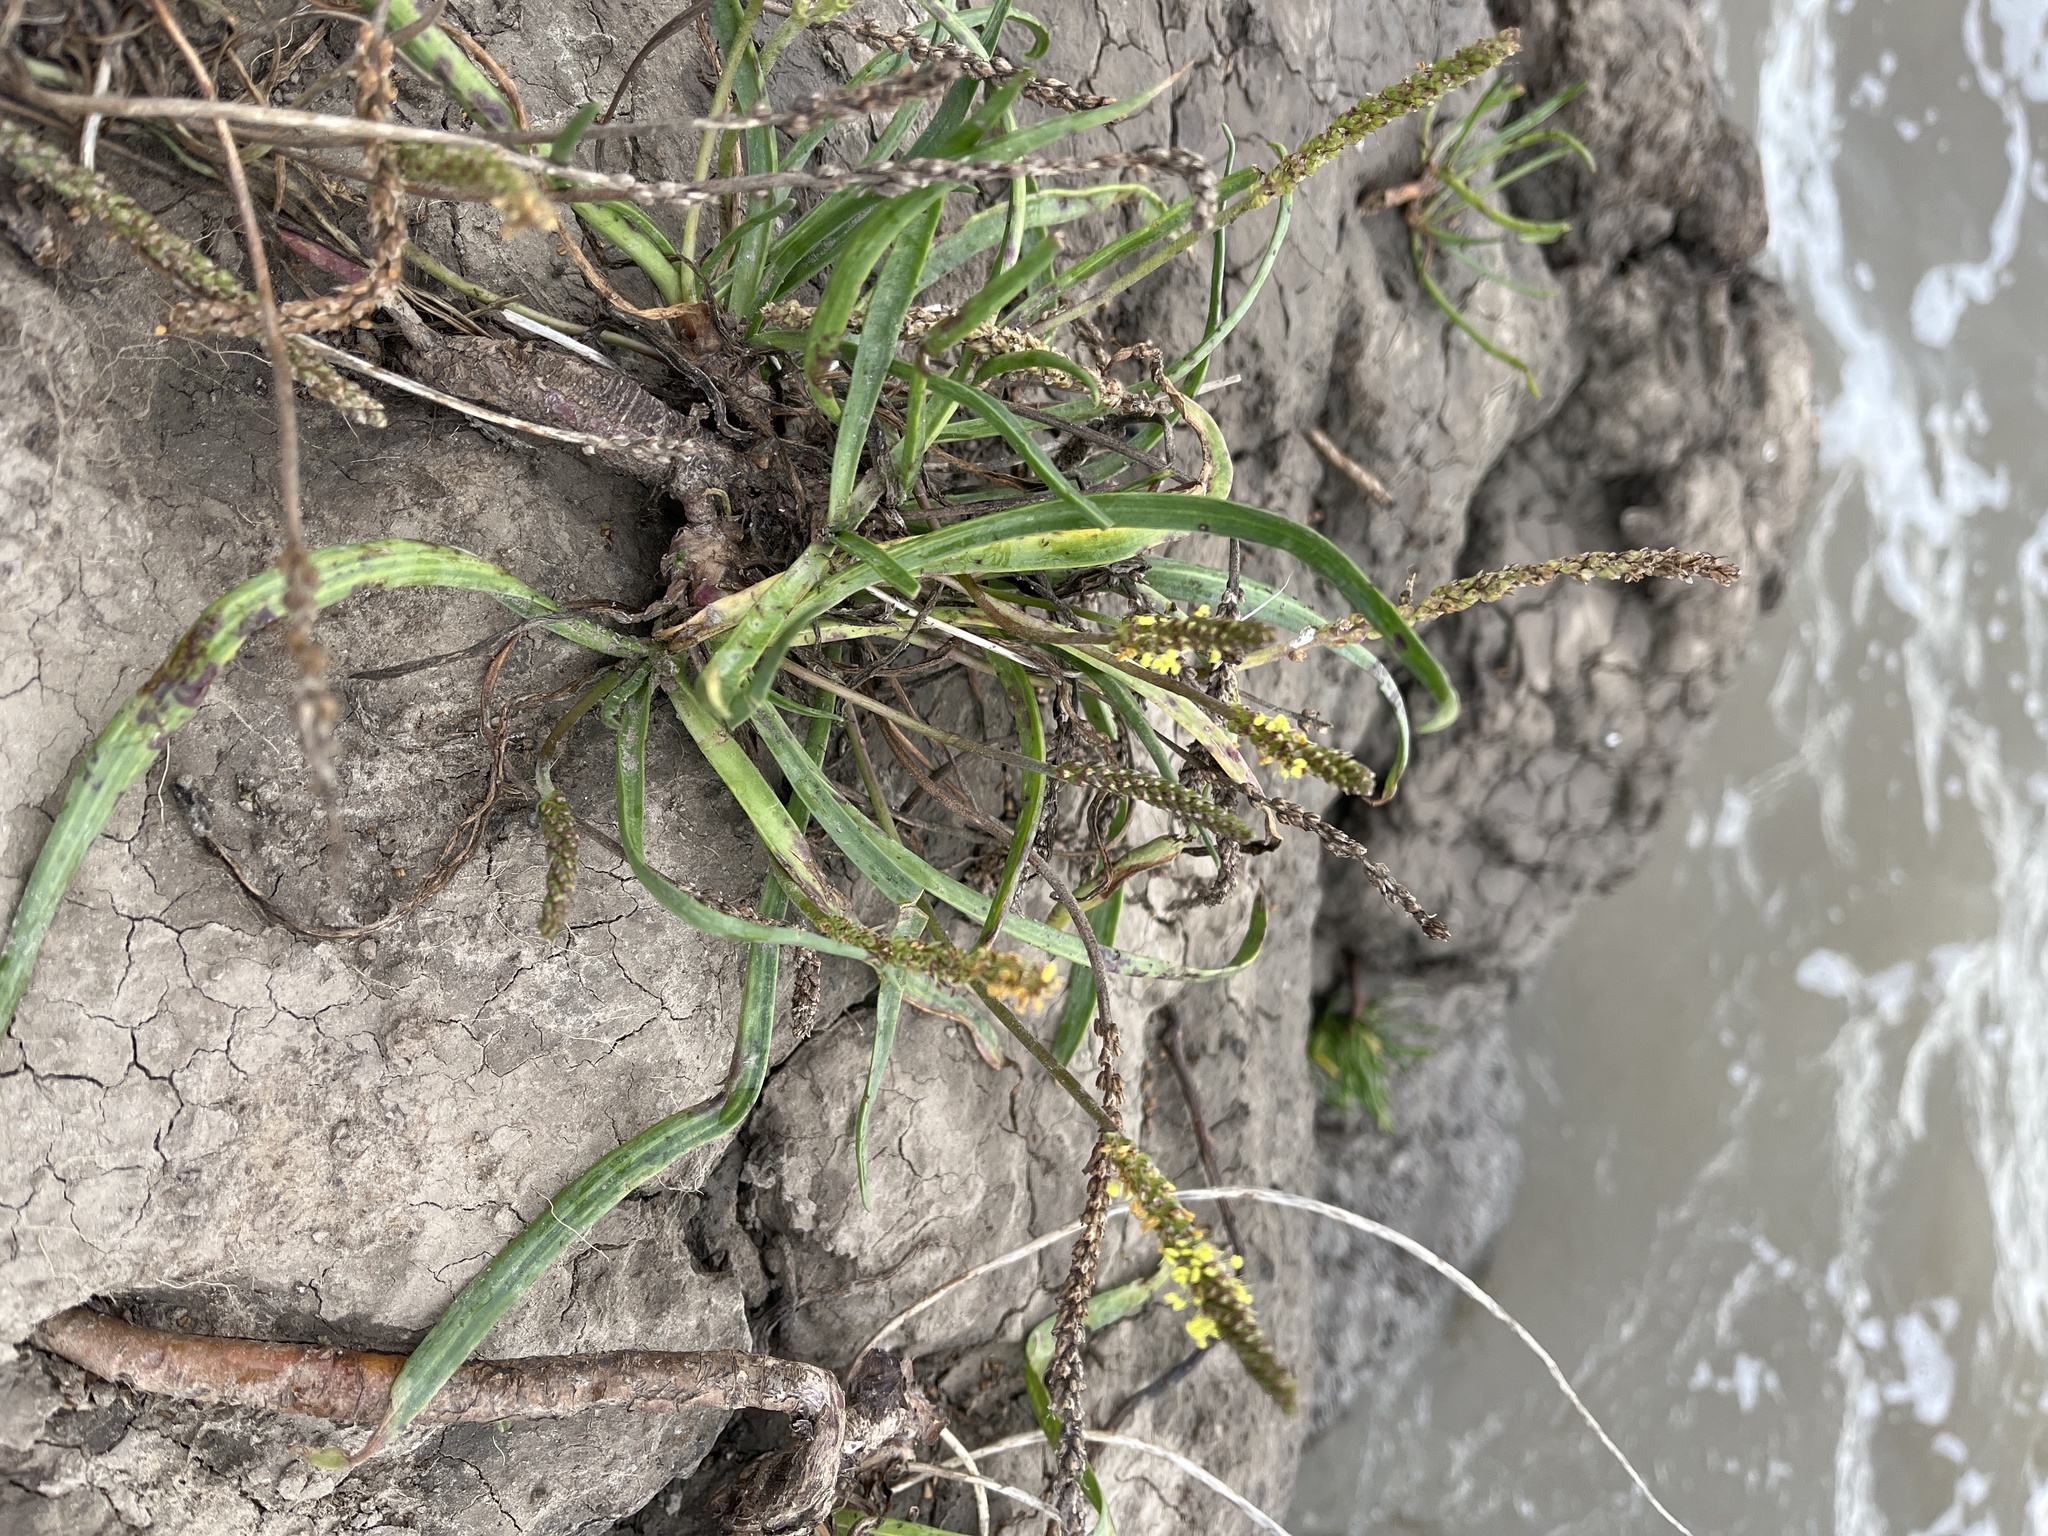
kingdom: Plantae
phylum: Tracheophyta
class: Magnoliopsida
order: Lamiales
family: Plantaginaceae
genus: Plantago
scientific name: Plantago maritima
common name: Sea plantain
